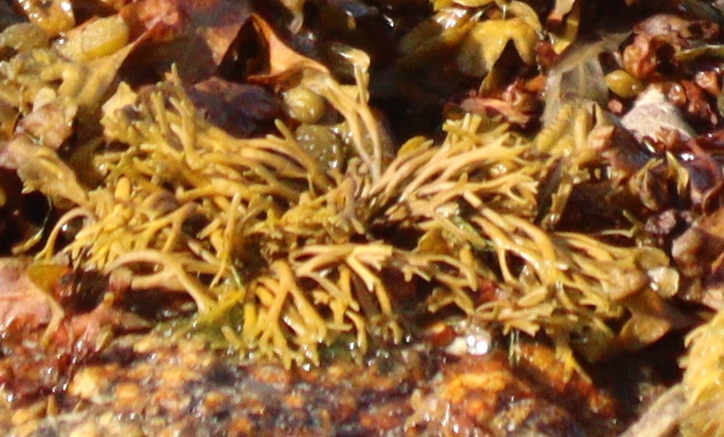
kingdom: Chromista
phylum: Ochrophyta
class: Phaeophyceae
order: Fucales
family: Fucaceae
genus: Pelvetia
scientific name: Pelvetia canaliculata
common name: Channelled wrack
